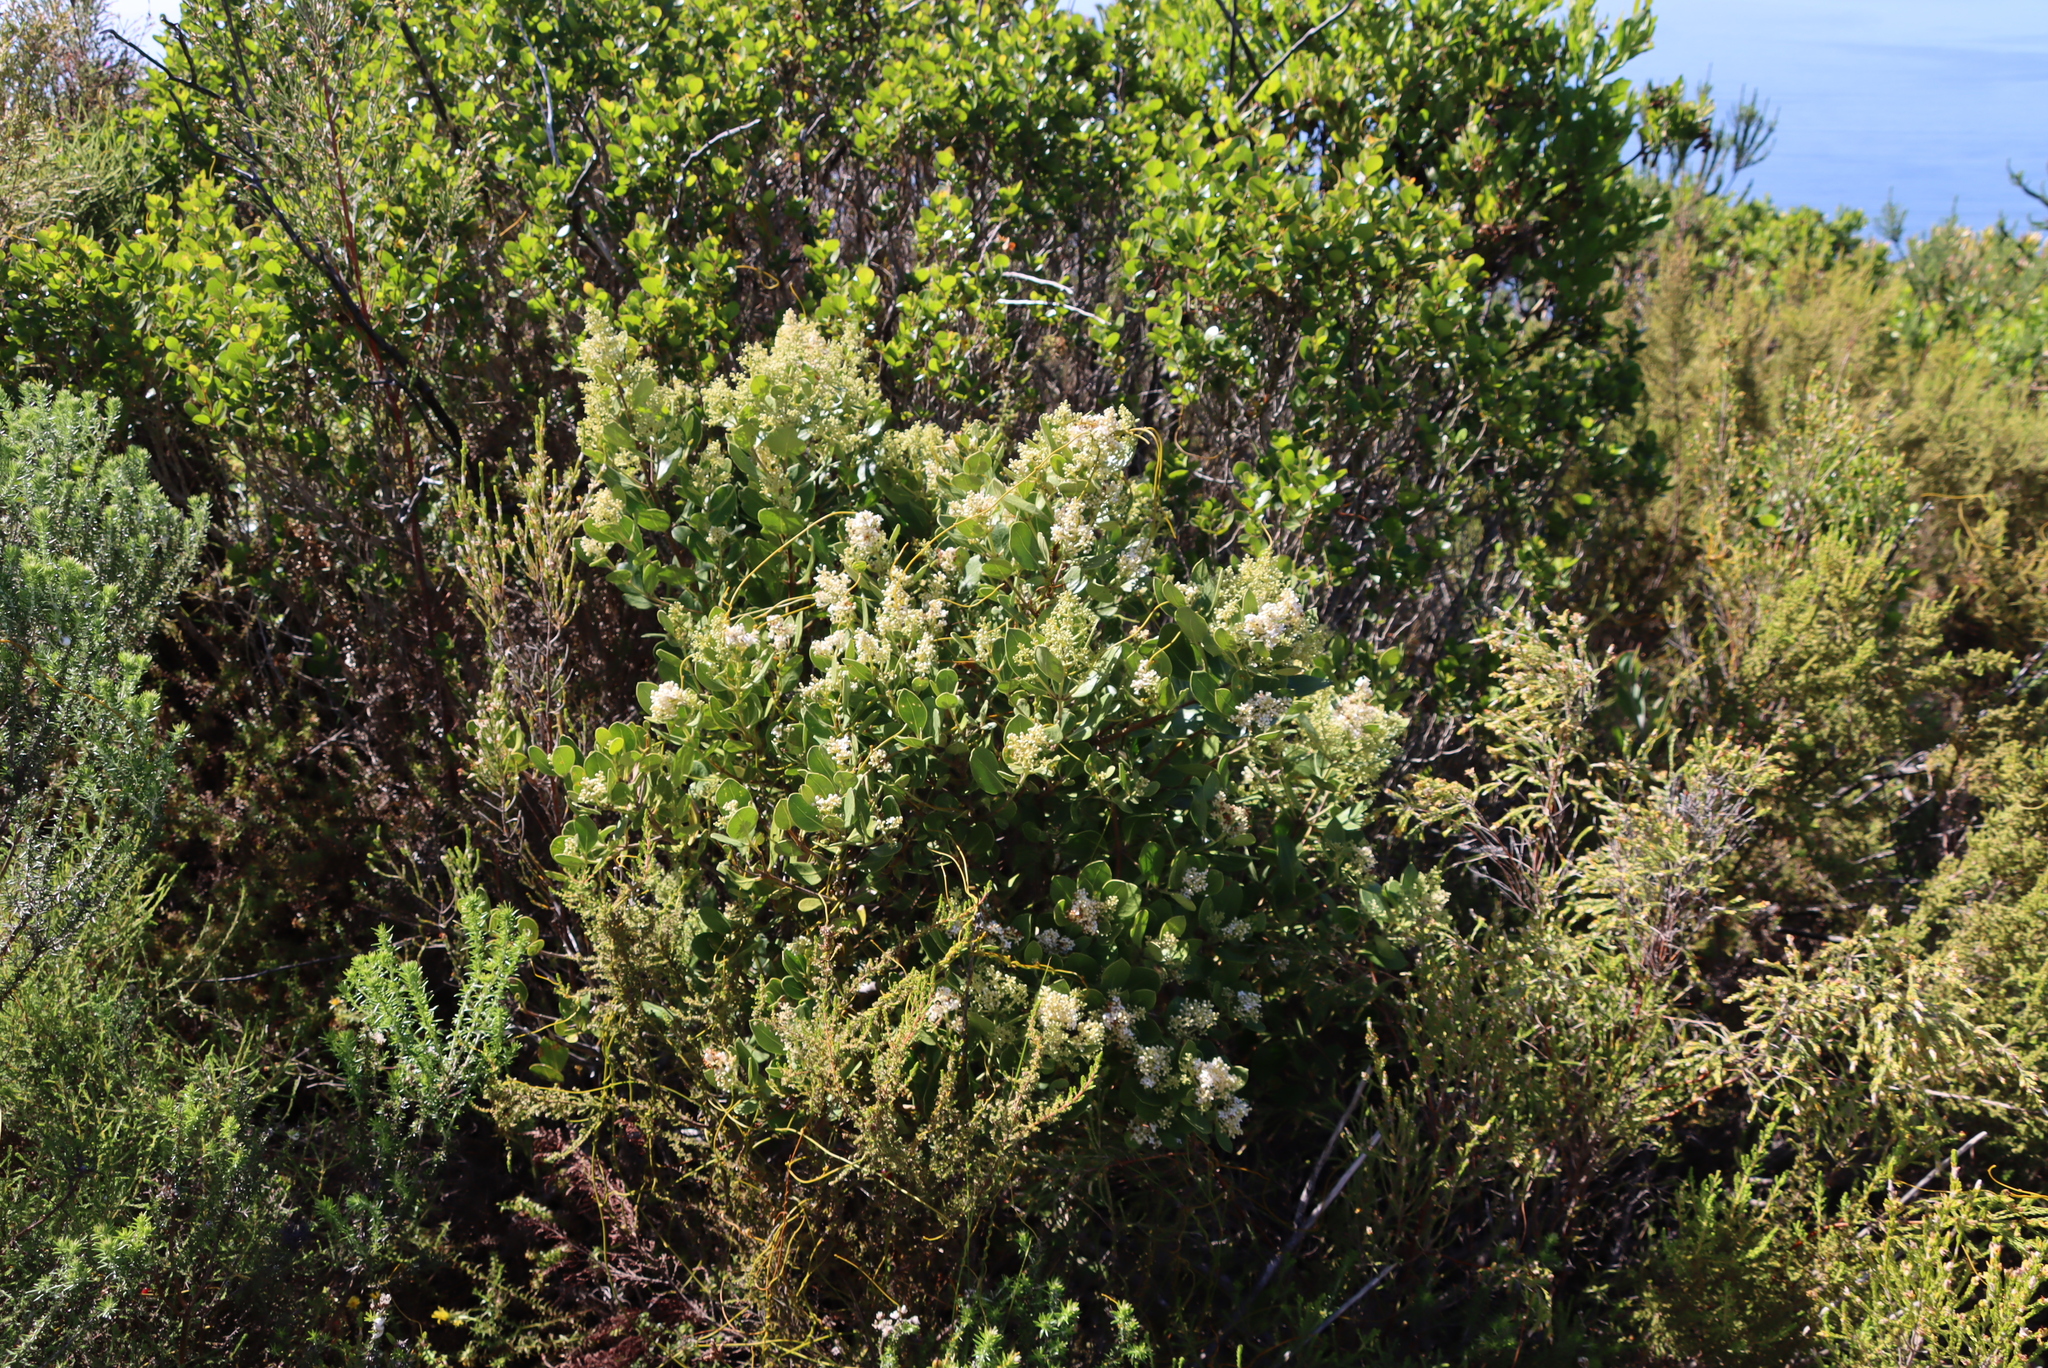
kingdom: Plantae
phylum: Tracheophyta
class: Magnoliopsida
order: Lamiales
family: Oleaceae
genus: Olea
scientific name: Olea capensis
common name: Black ironwood
